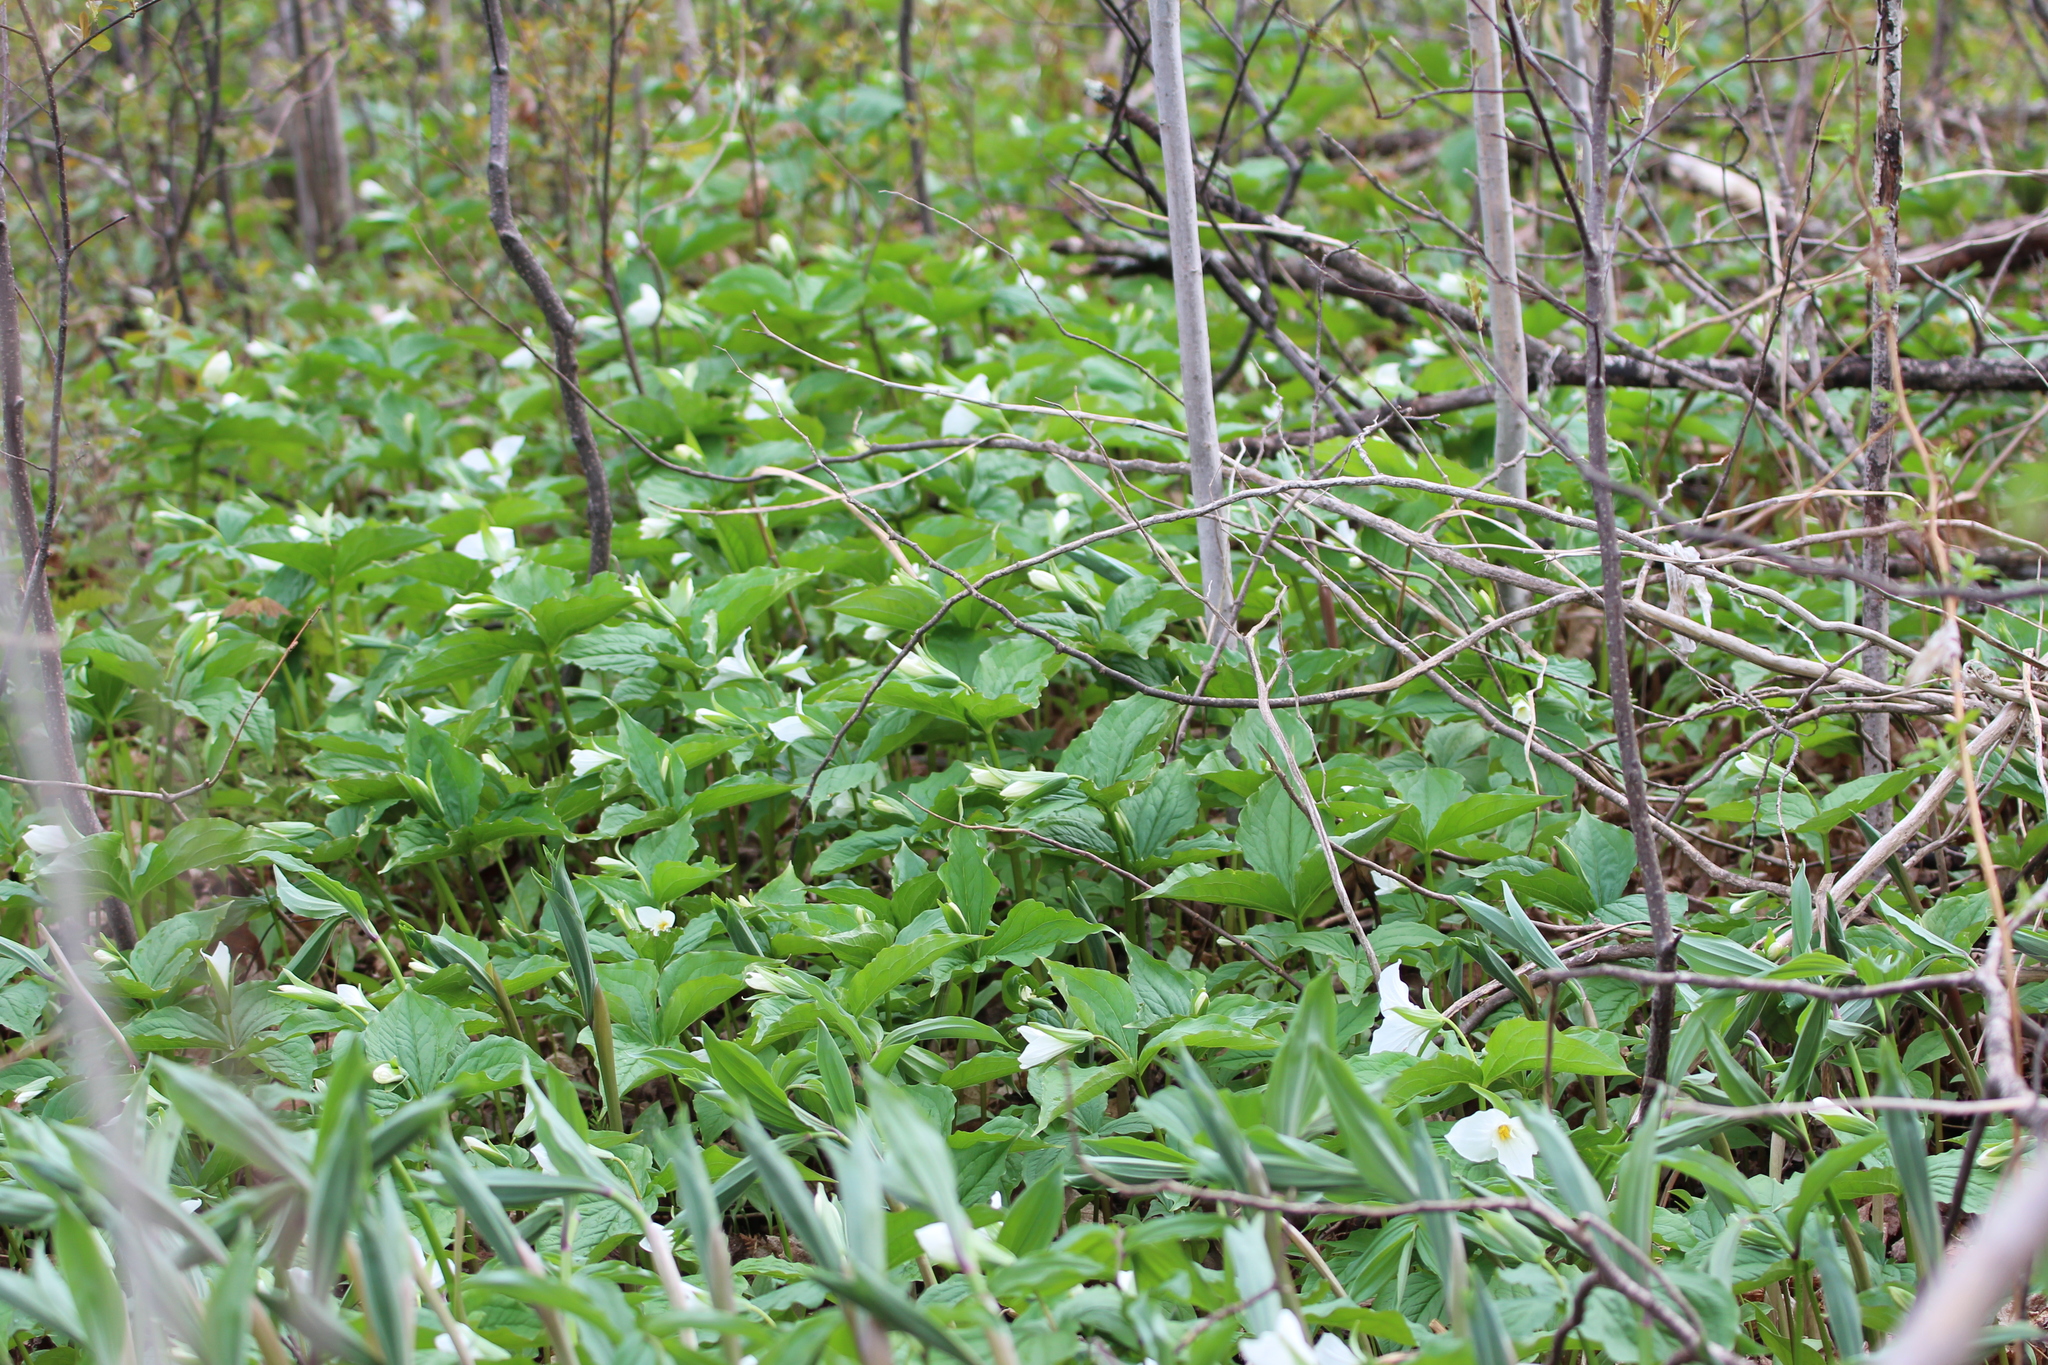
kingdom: Plantae
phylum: Tracheophyta
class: Liliopsida
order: Liliales
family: Melanthiaceae
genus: Trillium
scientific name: Trillium grandiflorum
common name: Great white trillium
